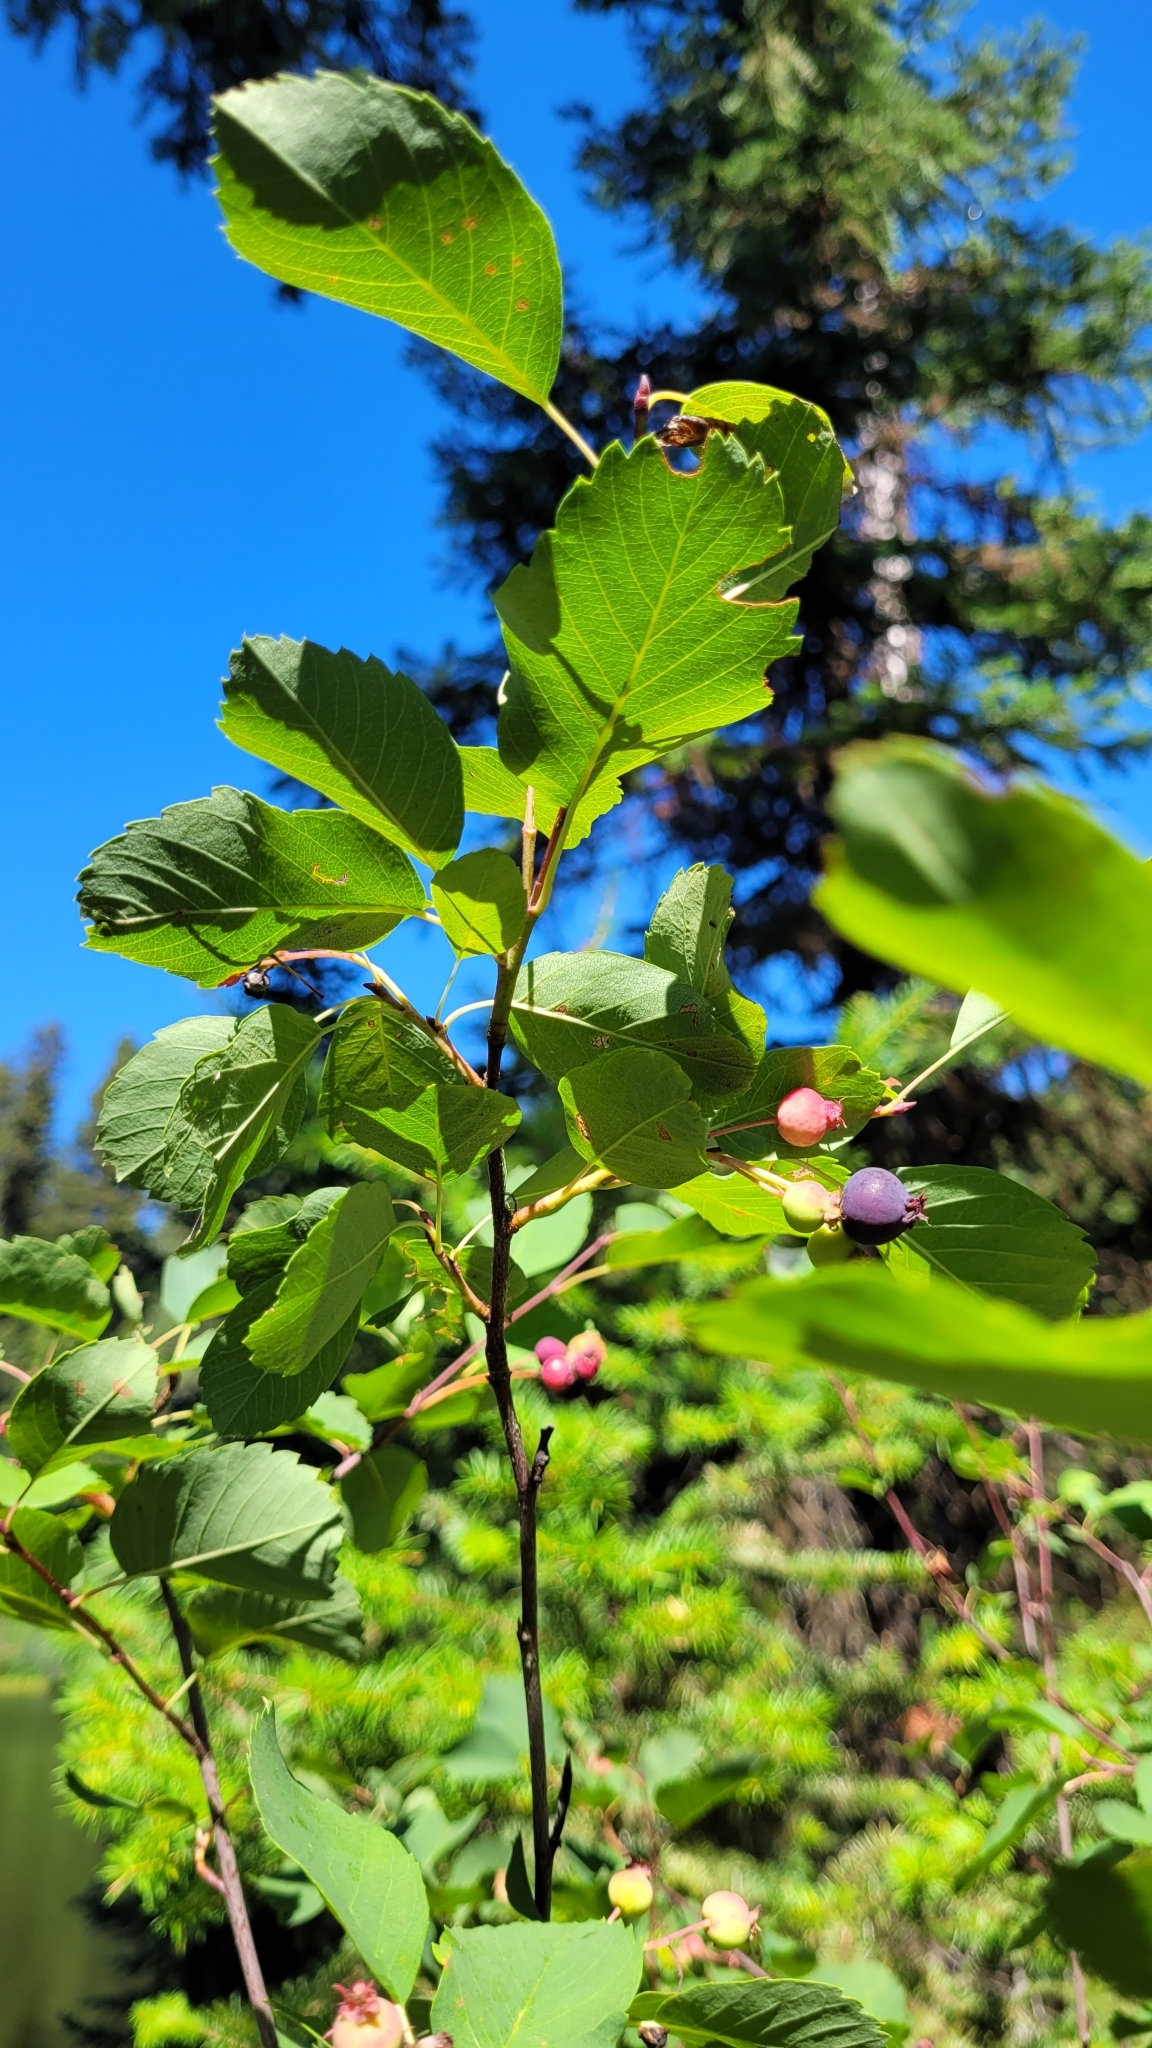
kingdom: Plantae
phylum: Tracheophyta
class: Magnoliopsida
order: Rosales
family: Rosaceae
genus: Amelanchier
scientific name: Amelanchier alnifolia
